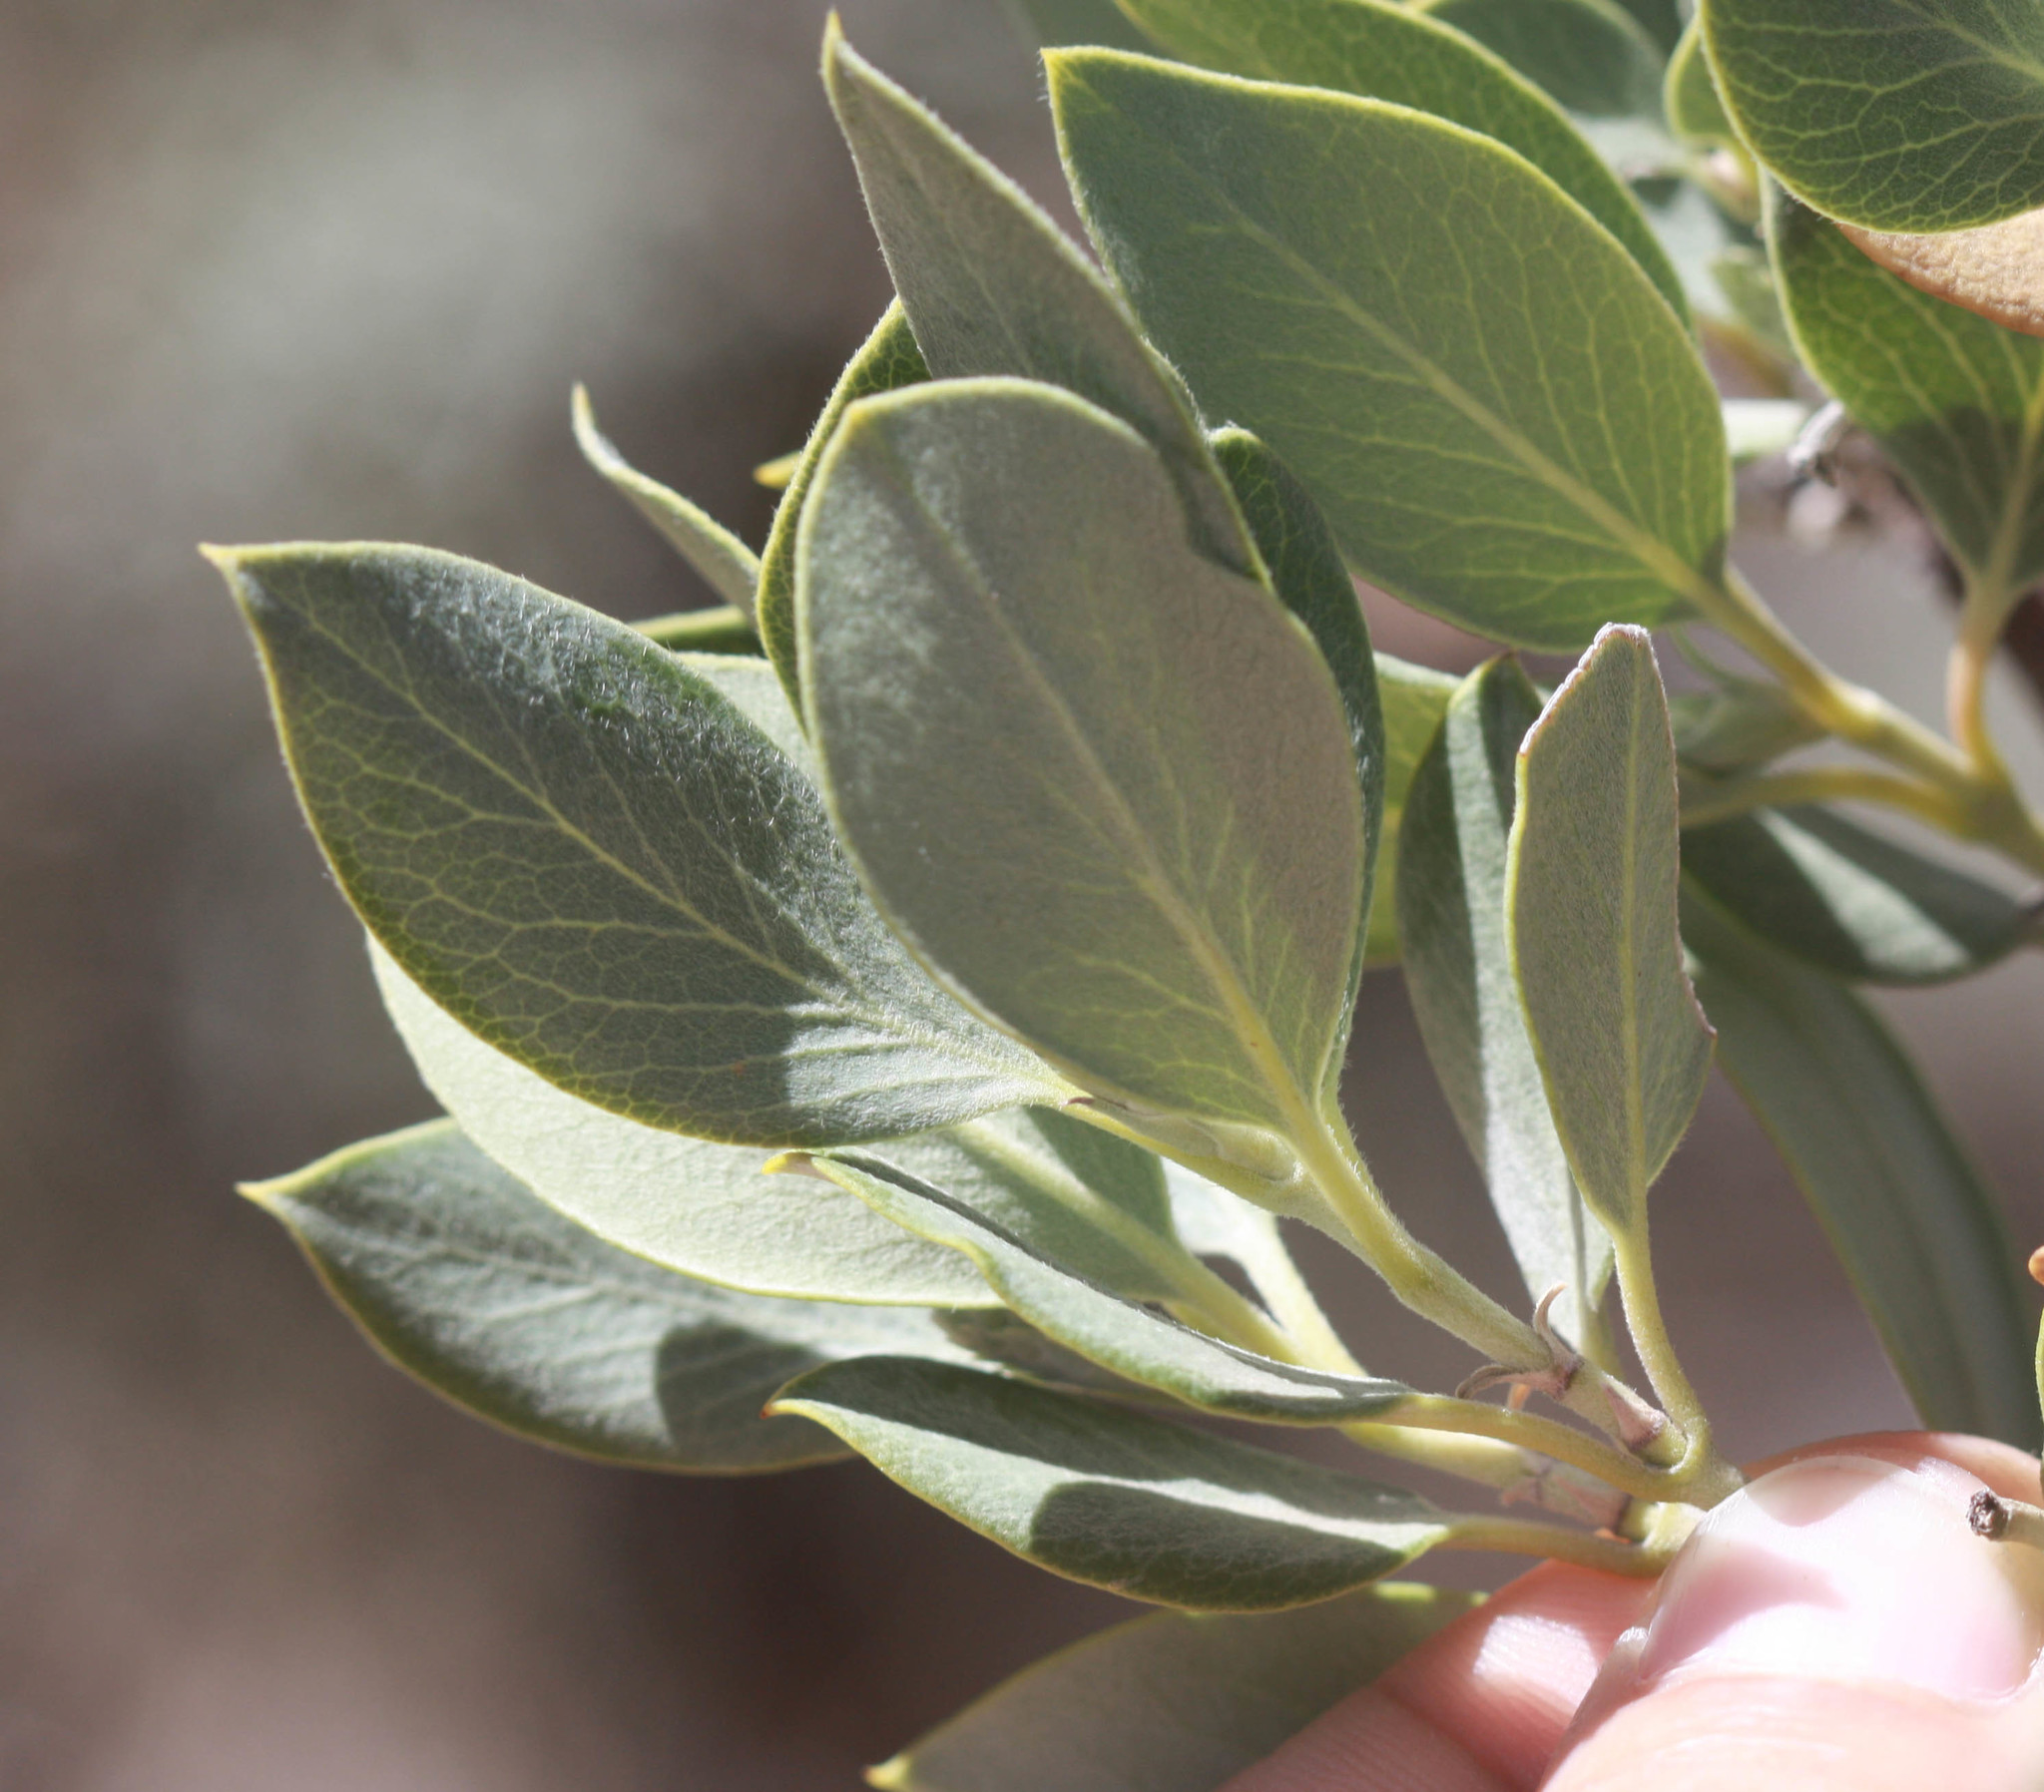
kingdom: Plantae
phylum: Tracheophyta
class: Magnoliopsida
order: Garryales
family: Garryaceae
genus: Garrya
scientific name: Garrya flavescens
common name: Ashy silk-tassel
